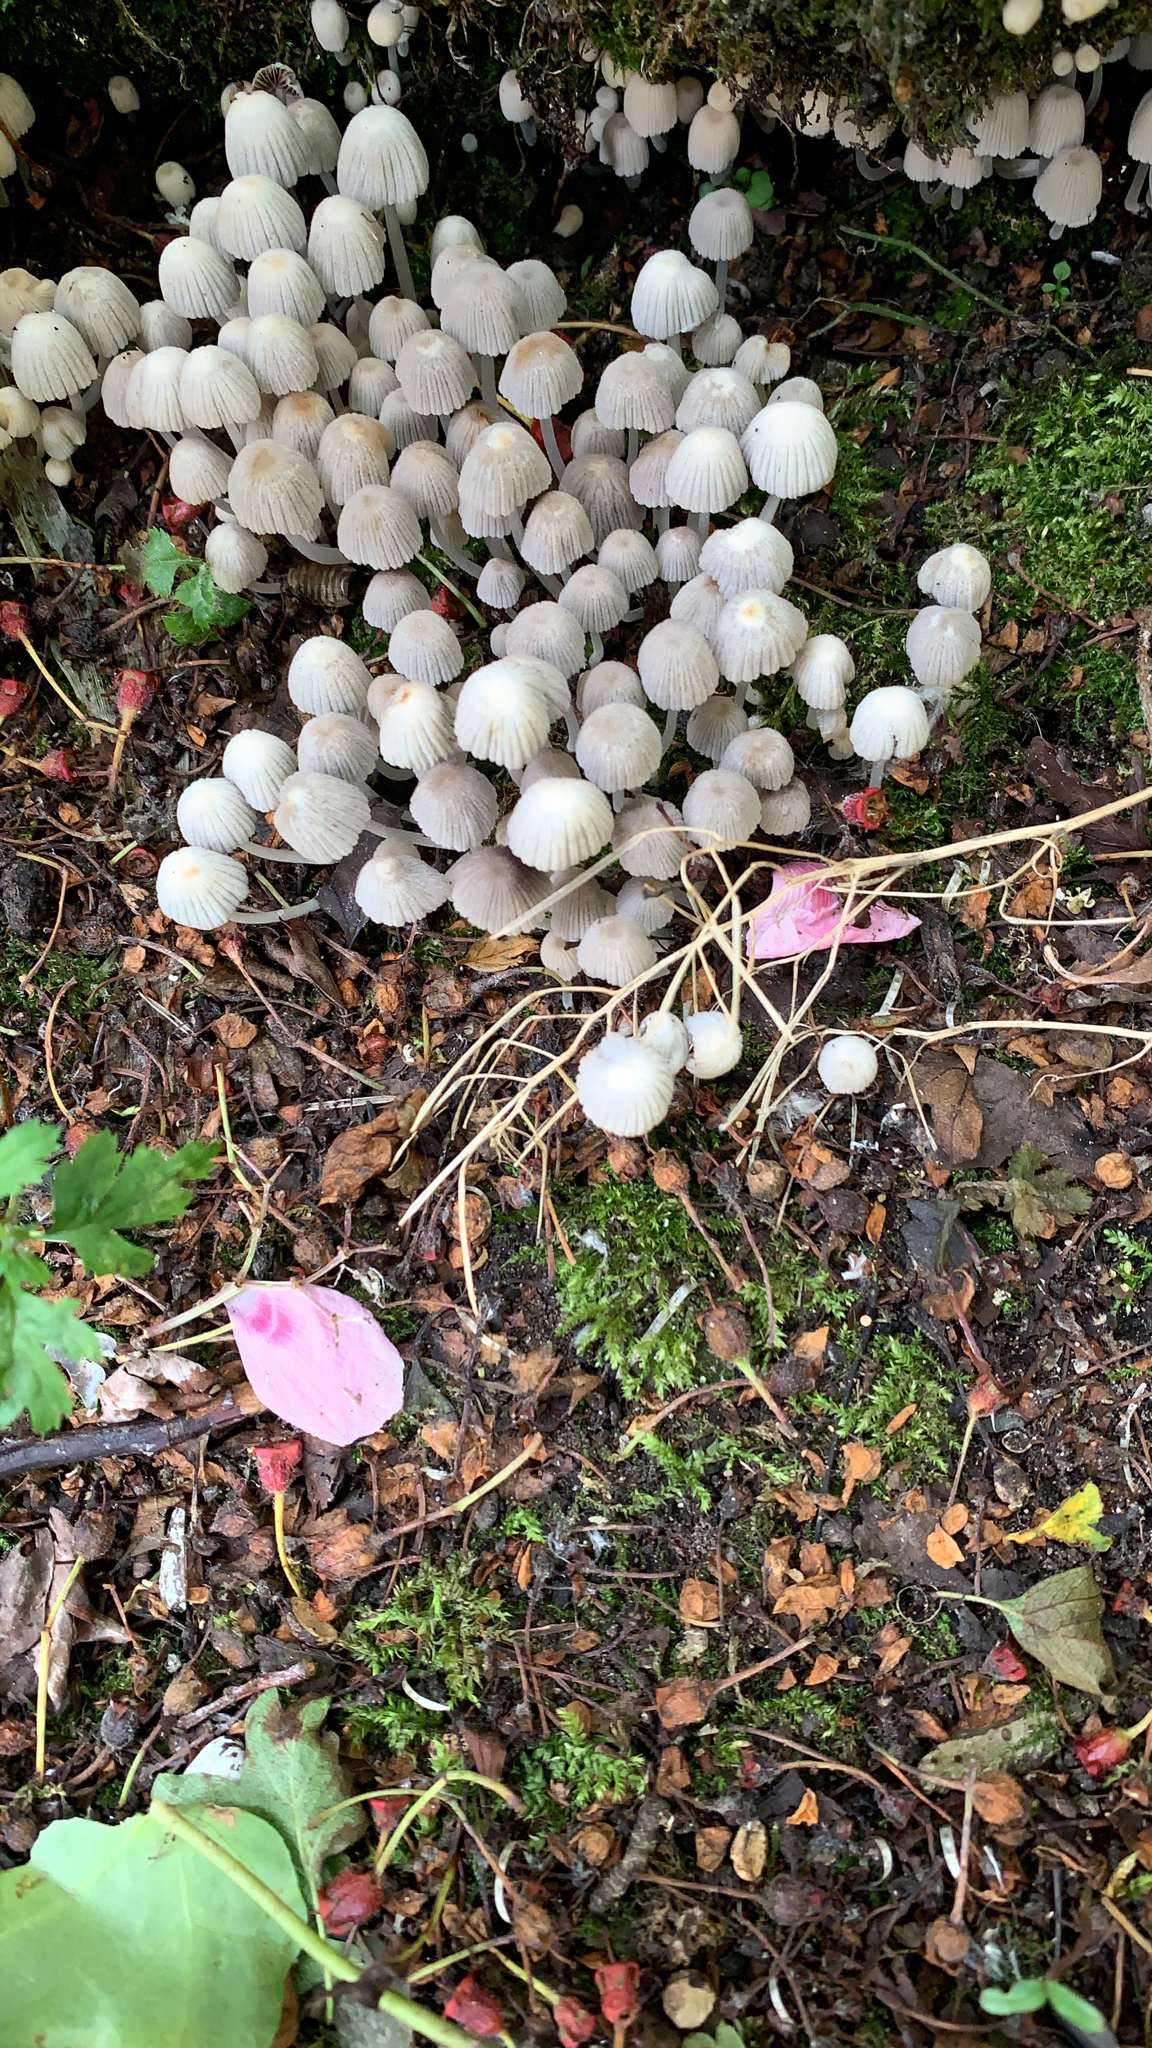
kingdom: Fungi
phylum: Basidiomycota
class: Agaricomycetes
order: Agaricales
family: Psathyrellaceae
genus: Coprinellus
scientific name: Coprinellus disseminatus
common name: Fairies' bonnets
